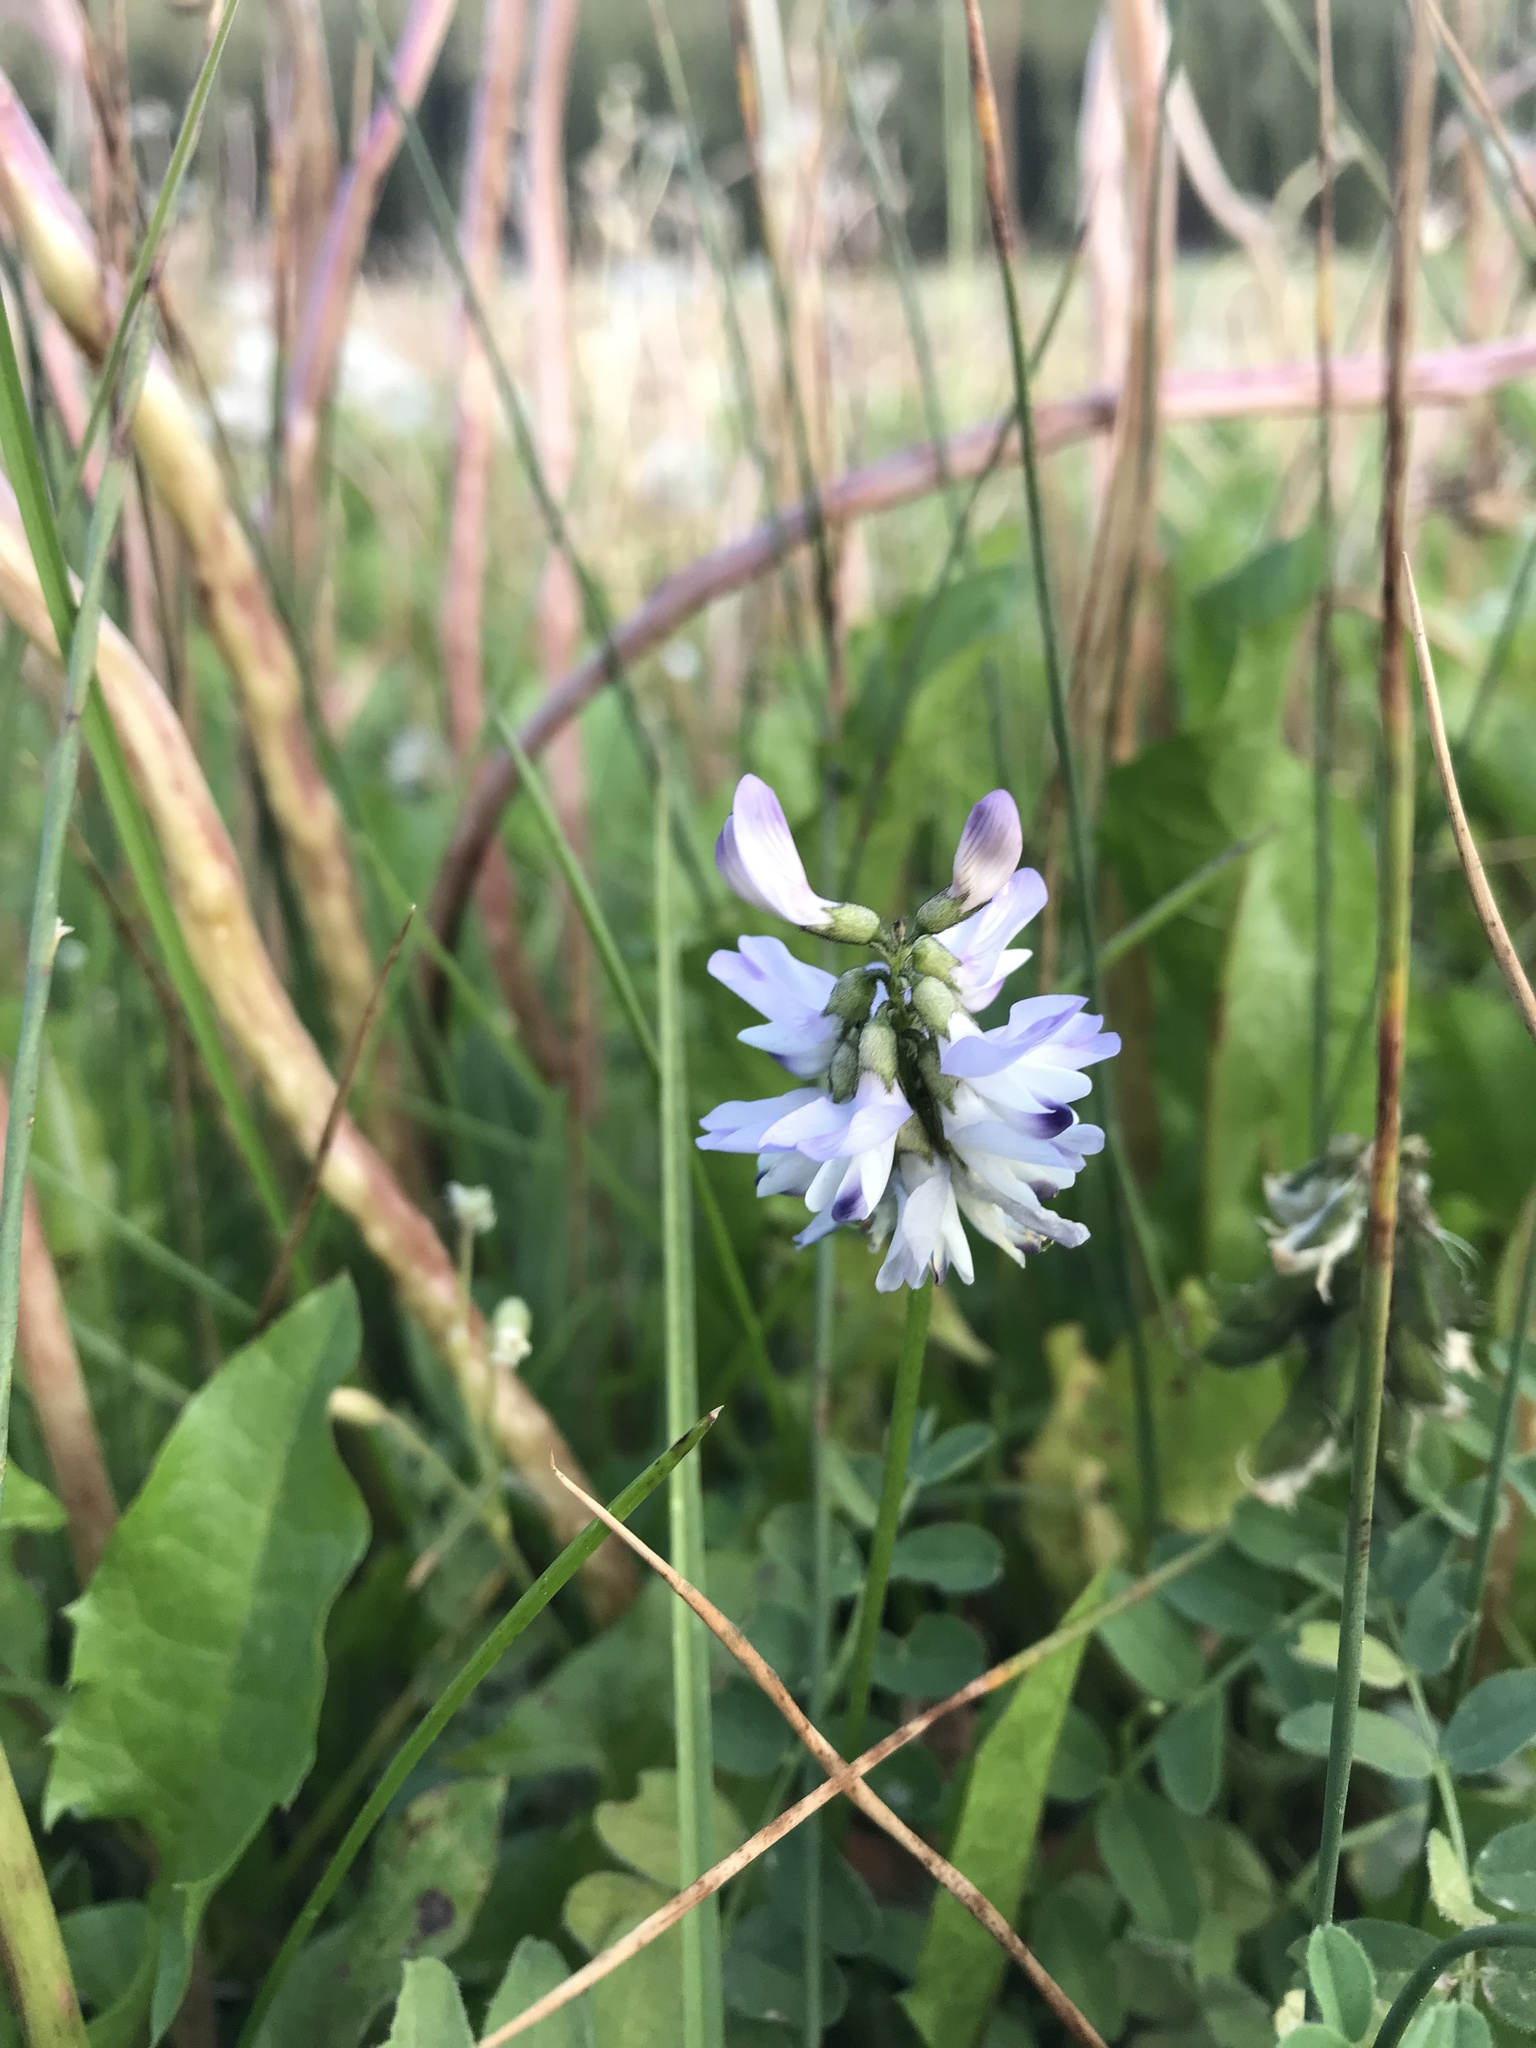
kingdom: Plantae
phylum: Tracheophyta
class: Magnoliopsida
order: Fabales
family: Fabaceae
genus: Astragalus
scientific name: Astragalus alpinus
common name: Alpine milk-vetch
